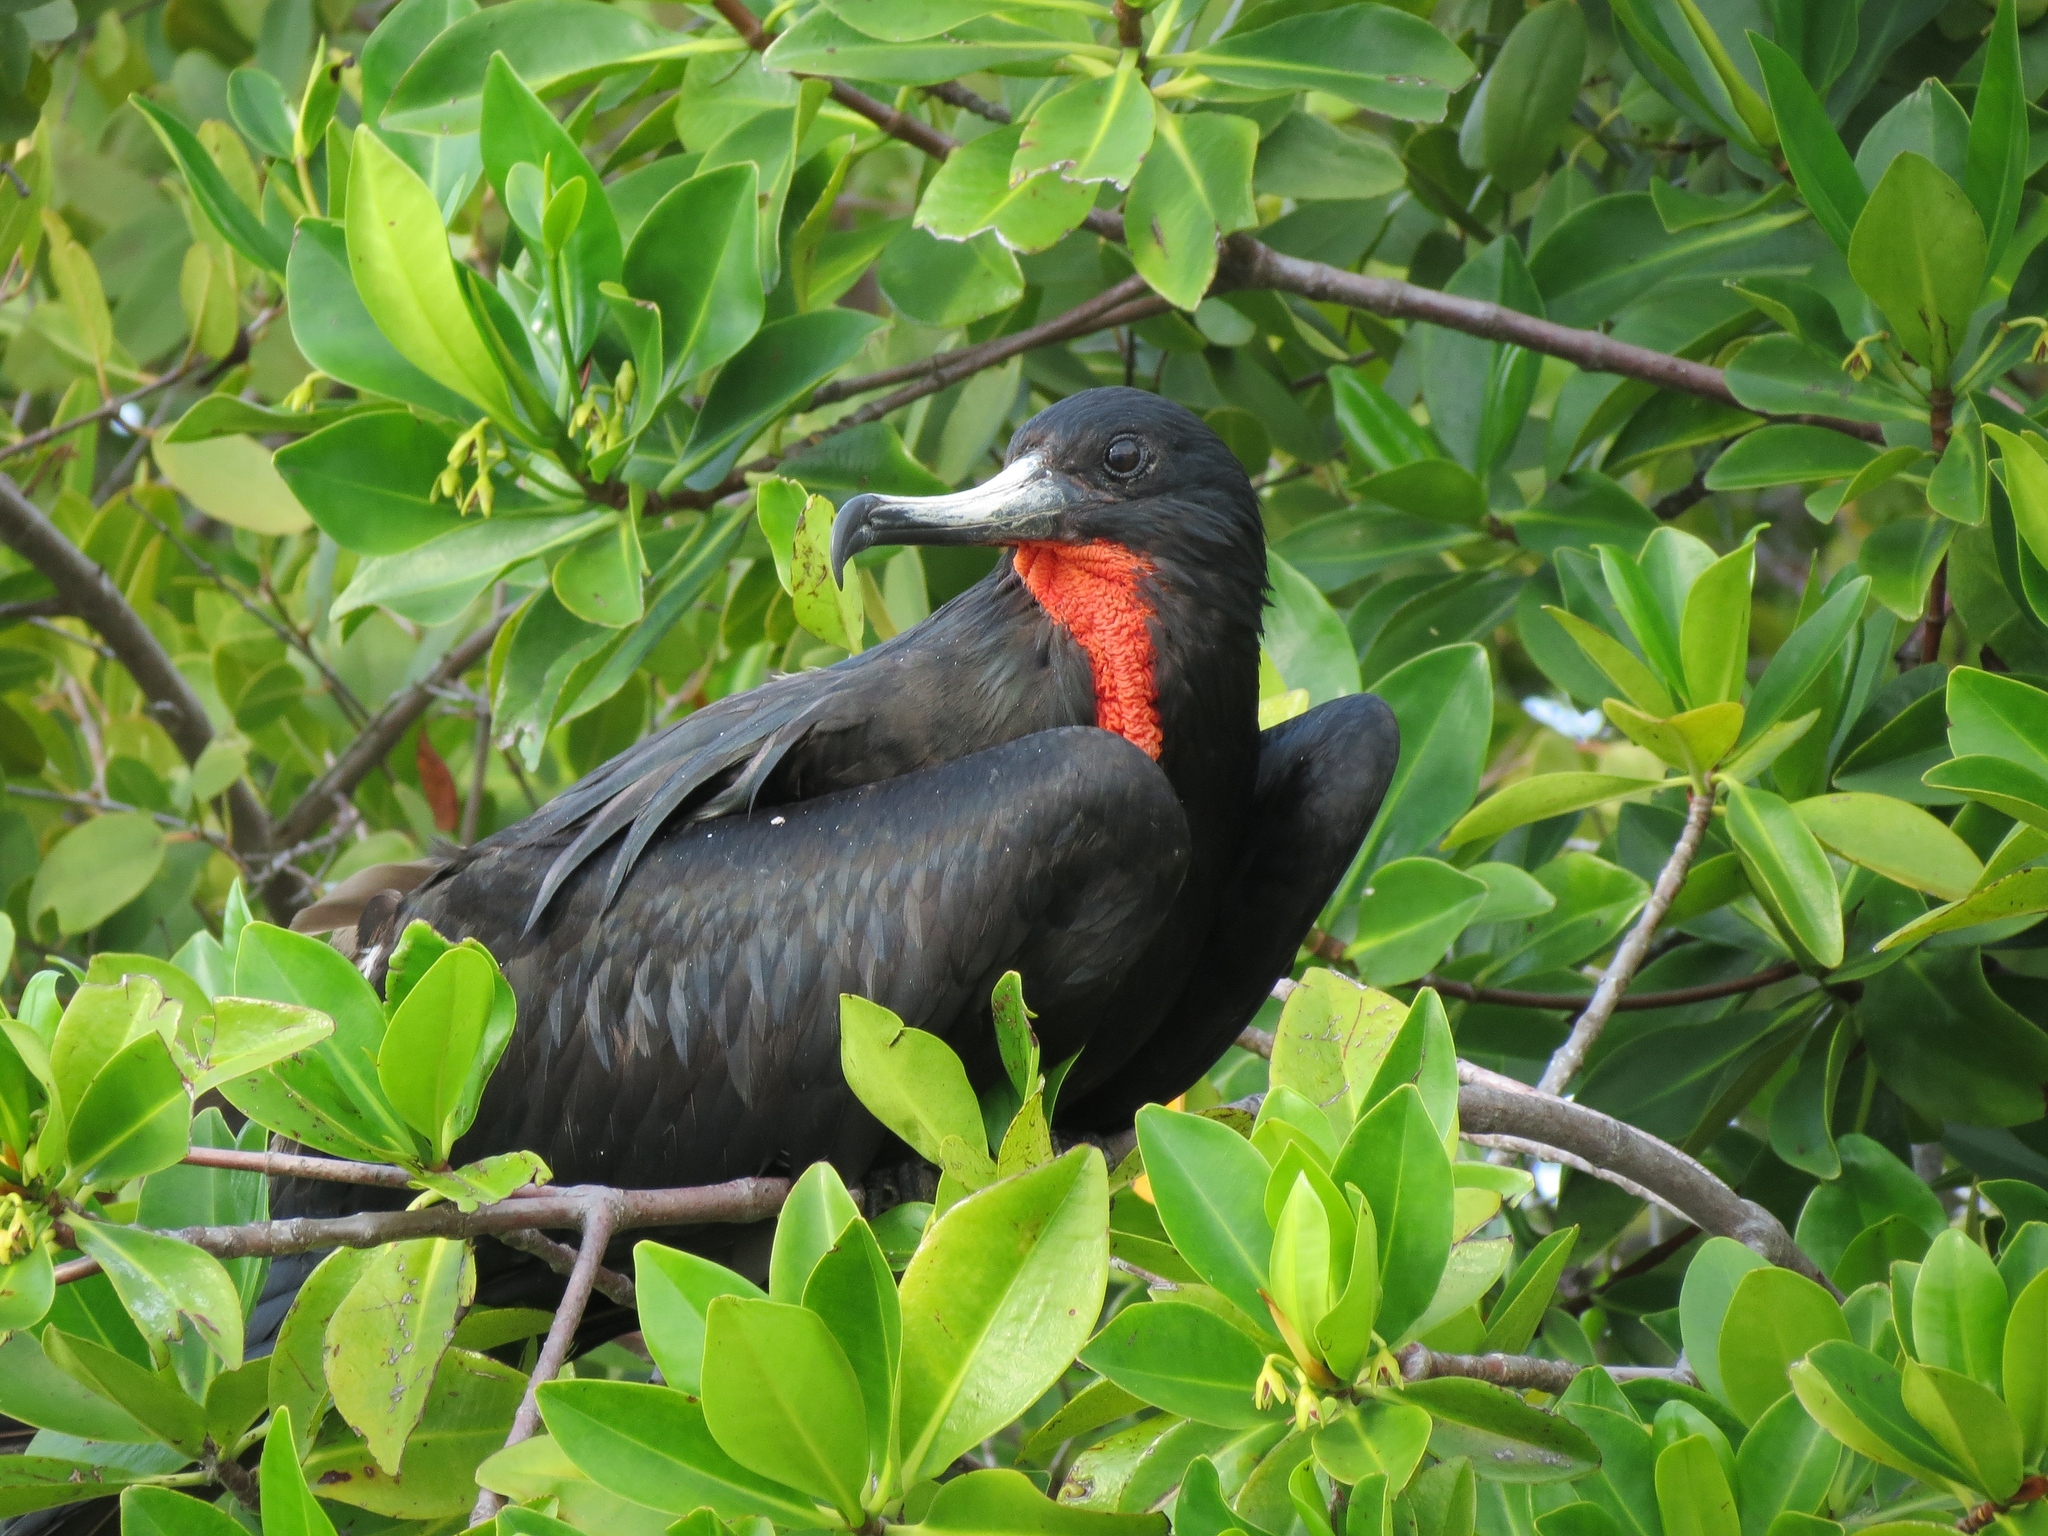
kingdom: Animalia
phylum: Chordata
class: Aves
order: Suliformes
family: Fregatidae
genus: Fregata
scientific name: Fregata magnificens
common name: Magnificent frigatebird
